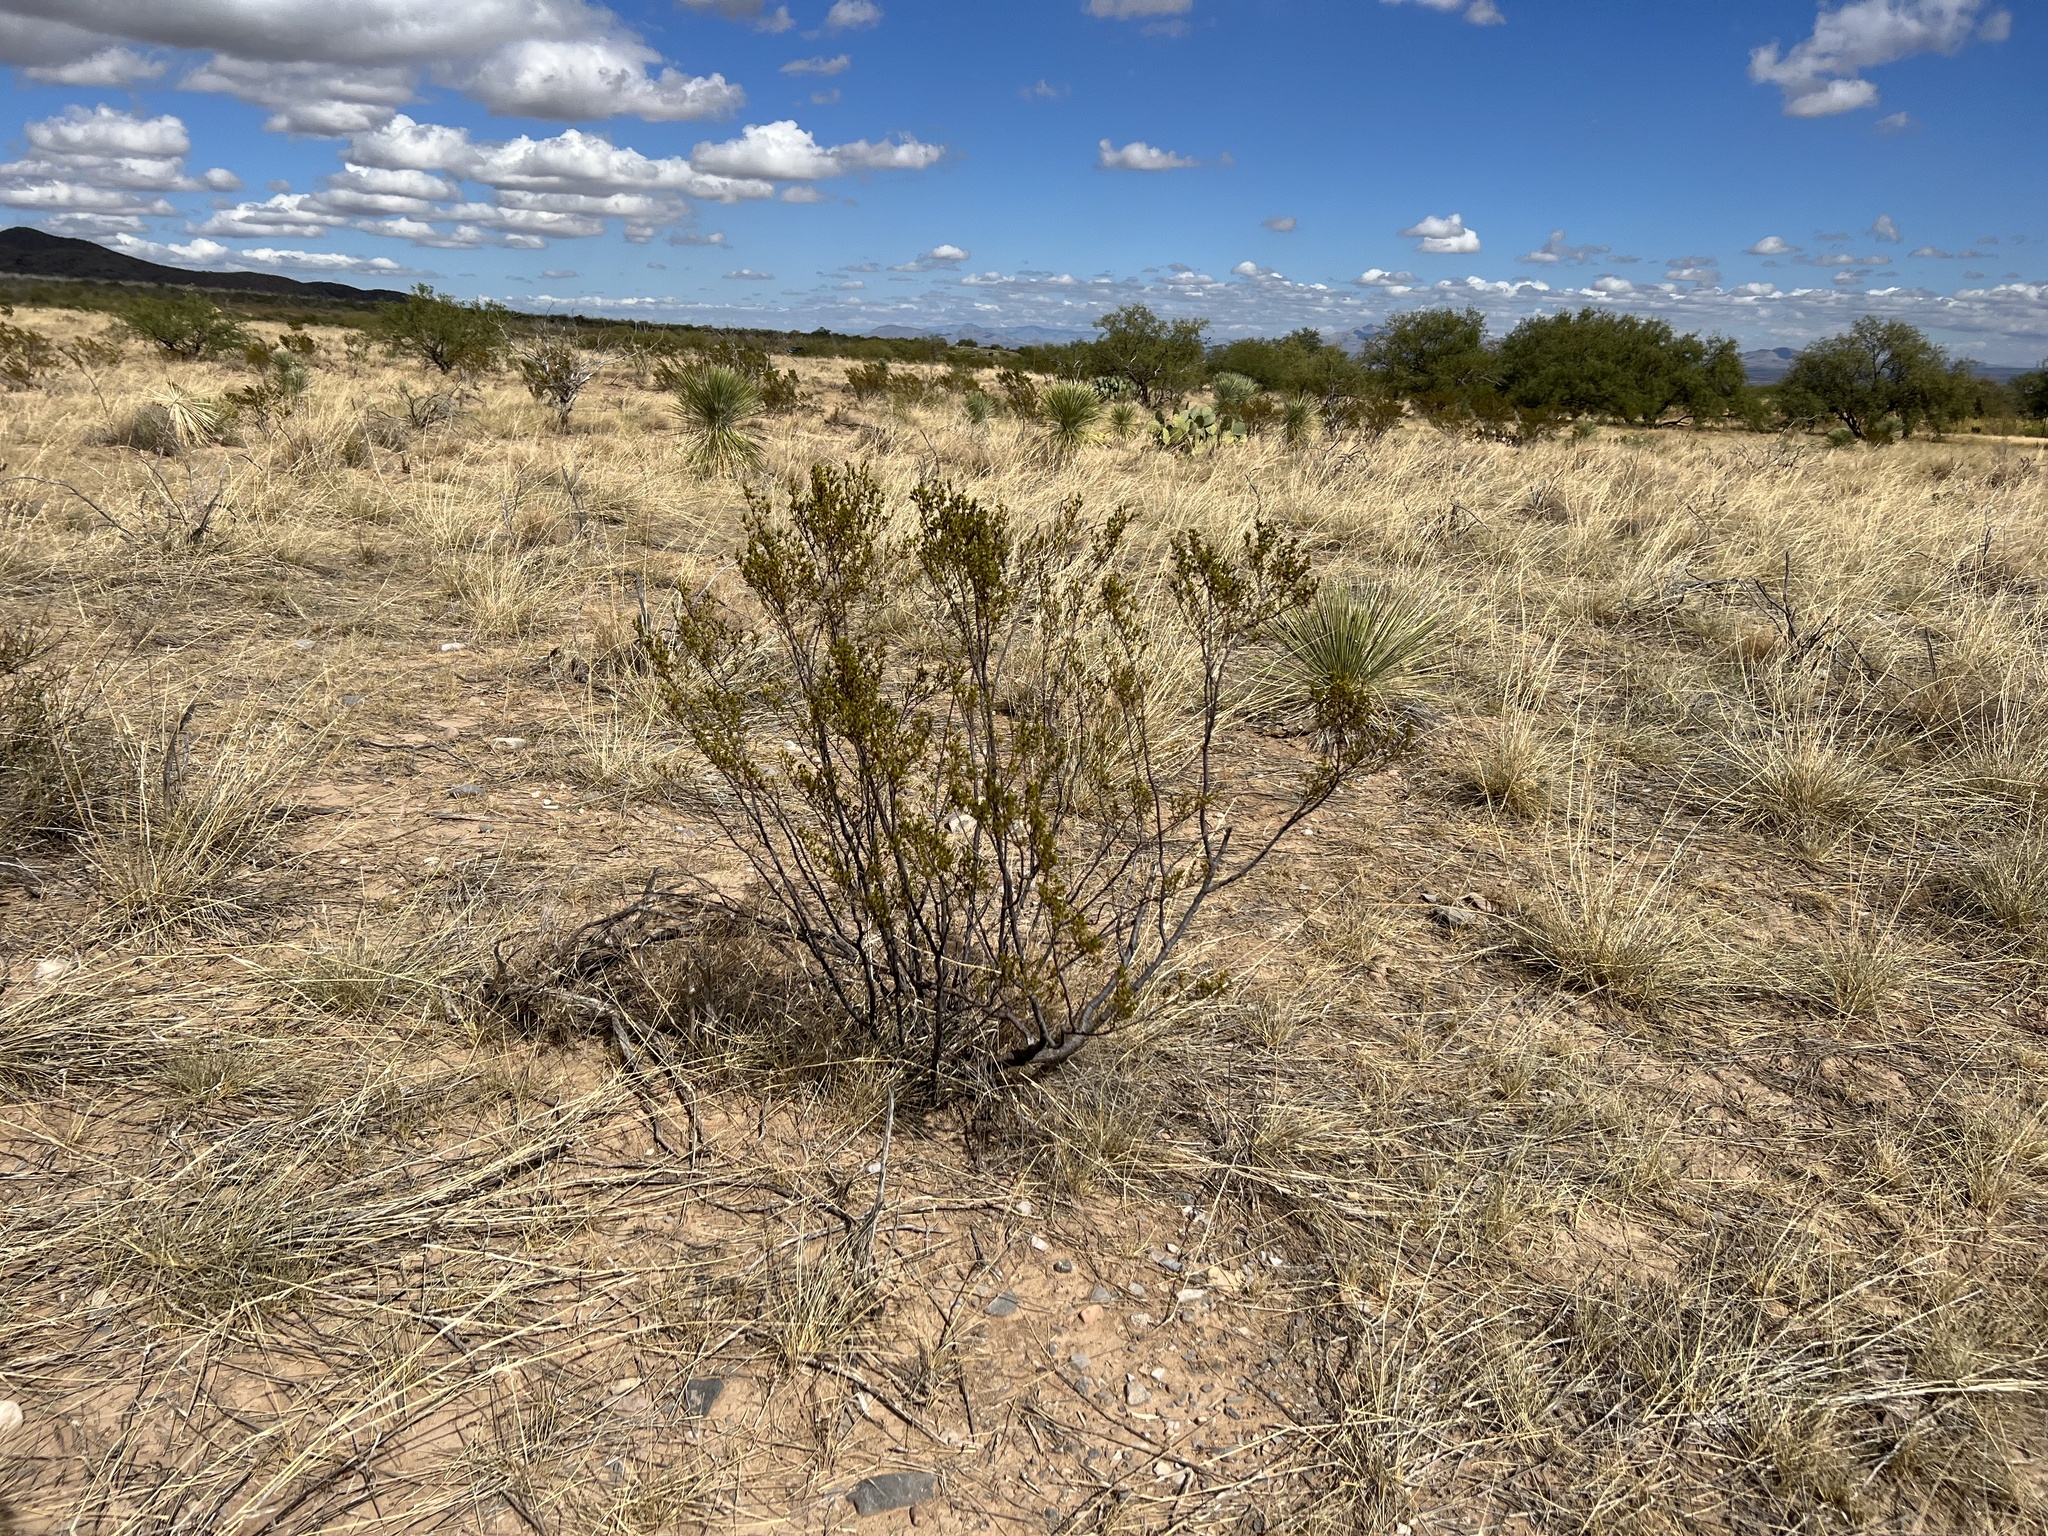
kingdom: Plantae
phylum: Tracheophyta
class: Magnoliopsida
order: Zygophyllales
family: Zygophyllaceae
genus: Larrea
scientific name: Larrea tridentata
